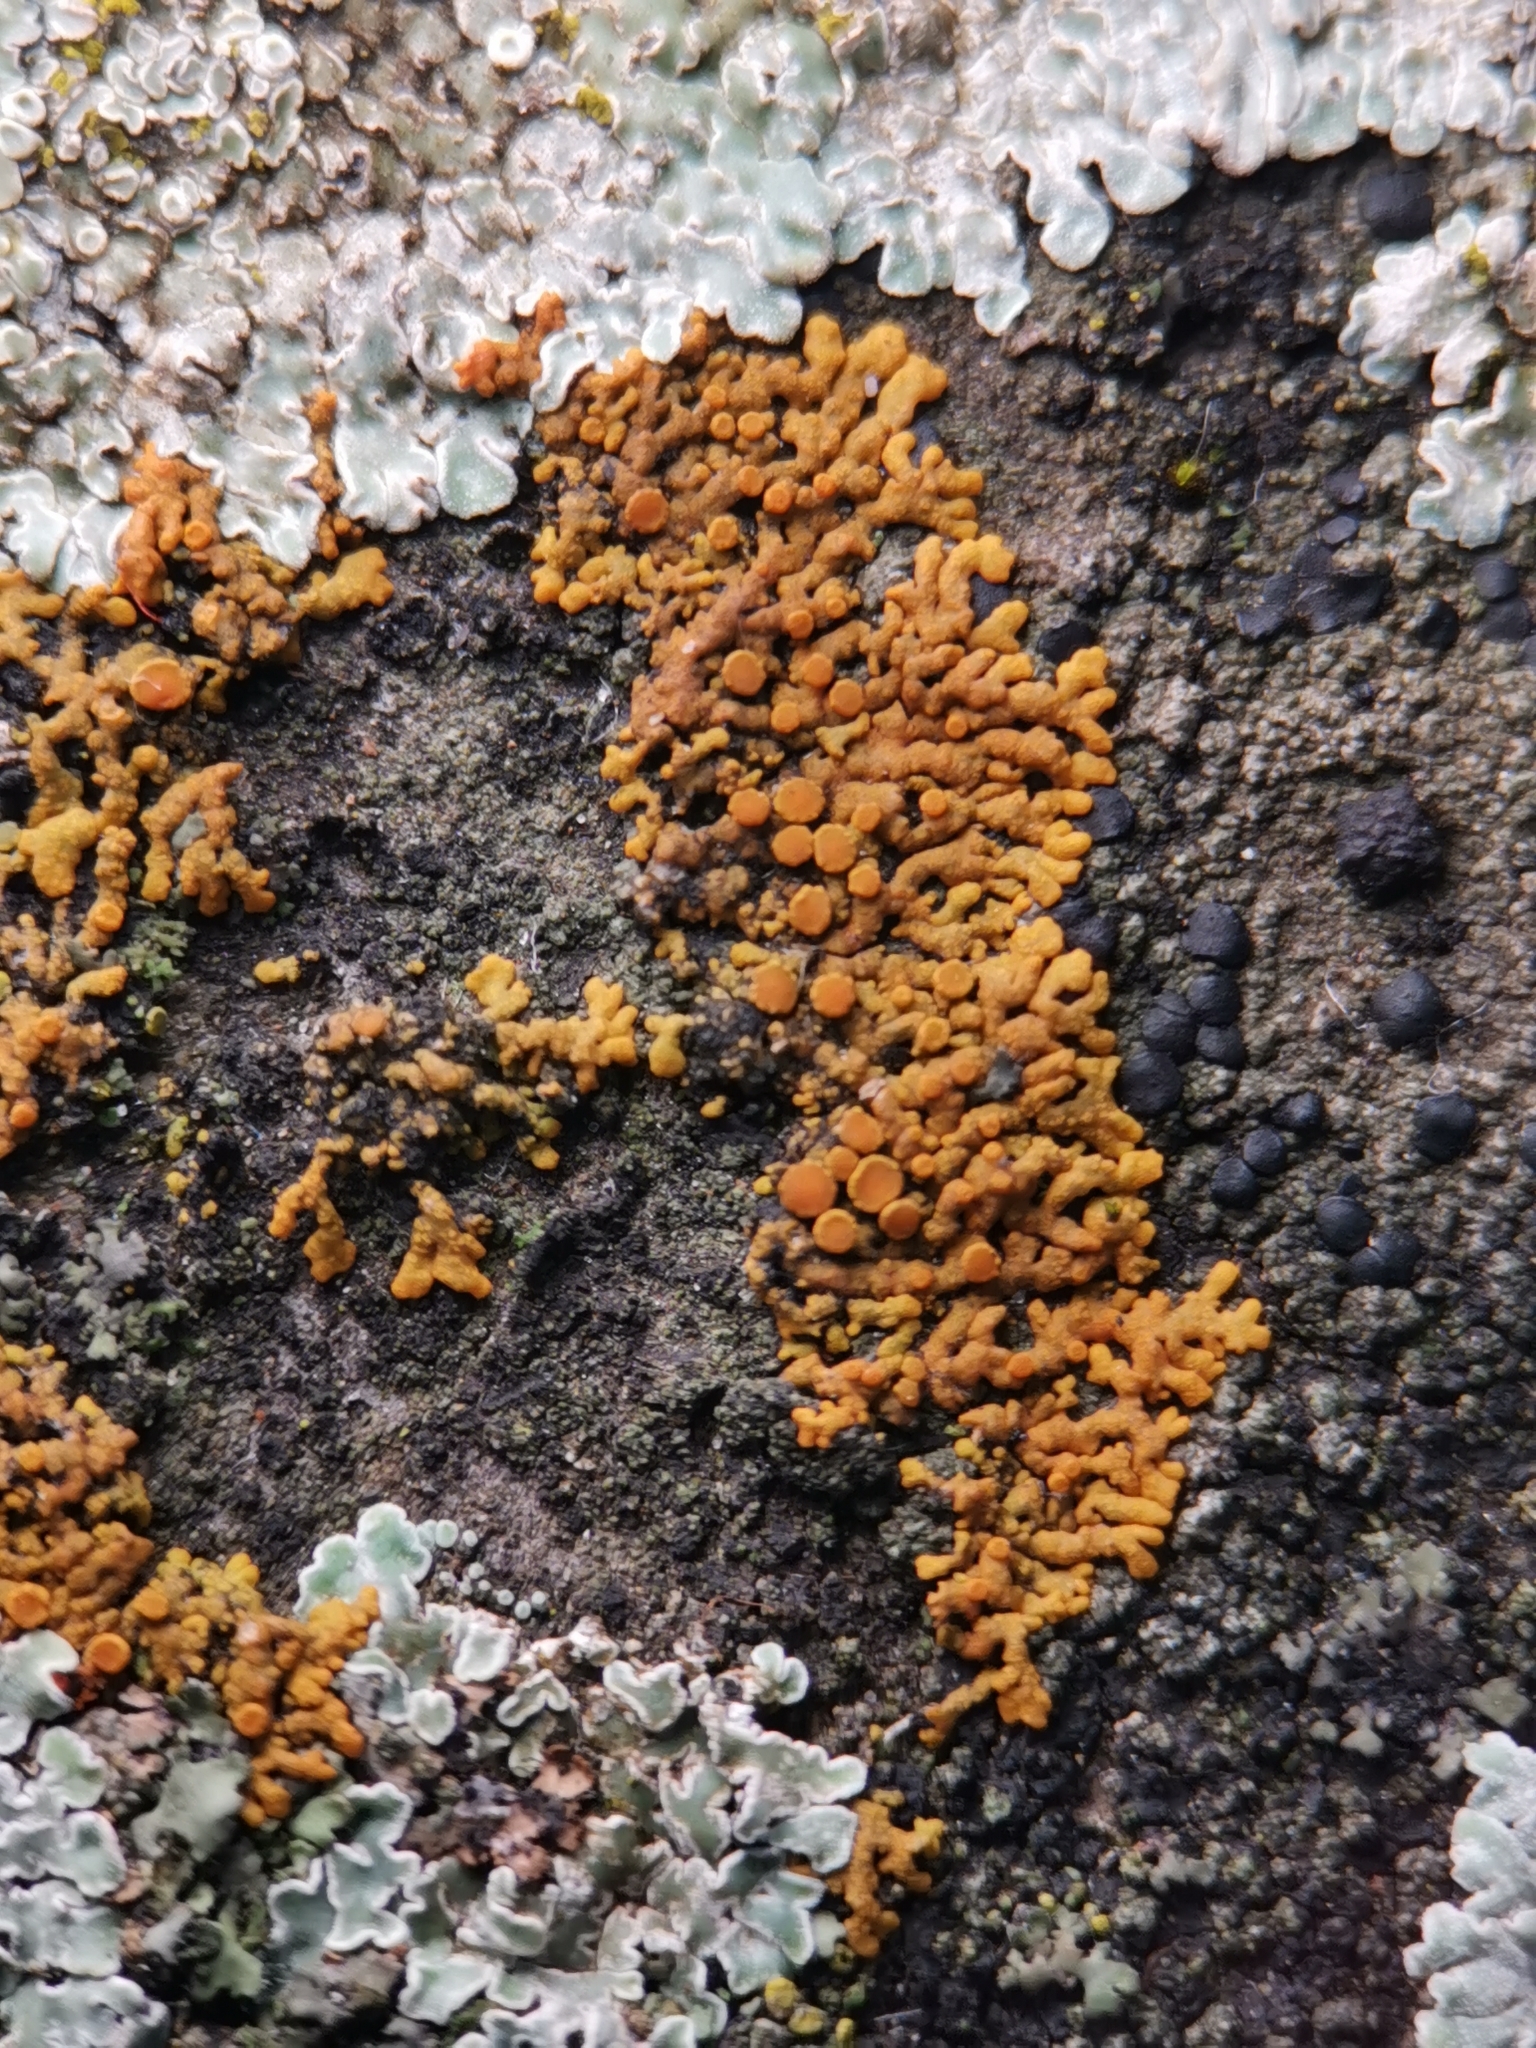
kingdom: Fungi
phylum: Ascomycota
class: Lecanoromycetes
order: Teloschistales
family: Teloschistaceae
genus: Xanthoria
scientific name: Xanthoria elegans
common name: Elegant sunburst lichen
